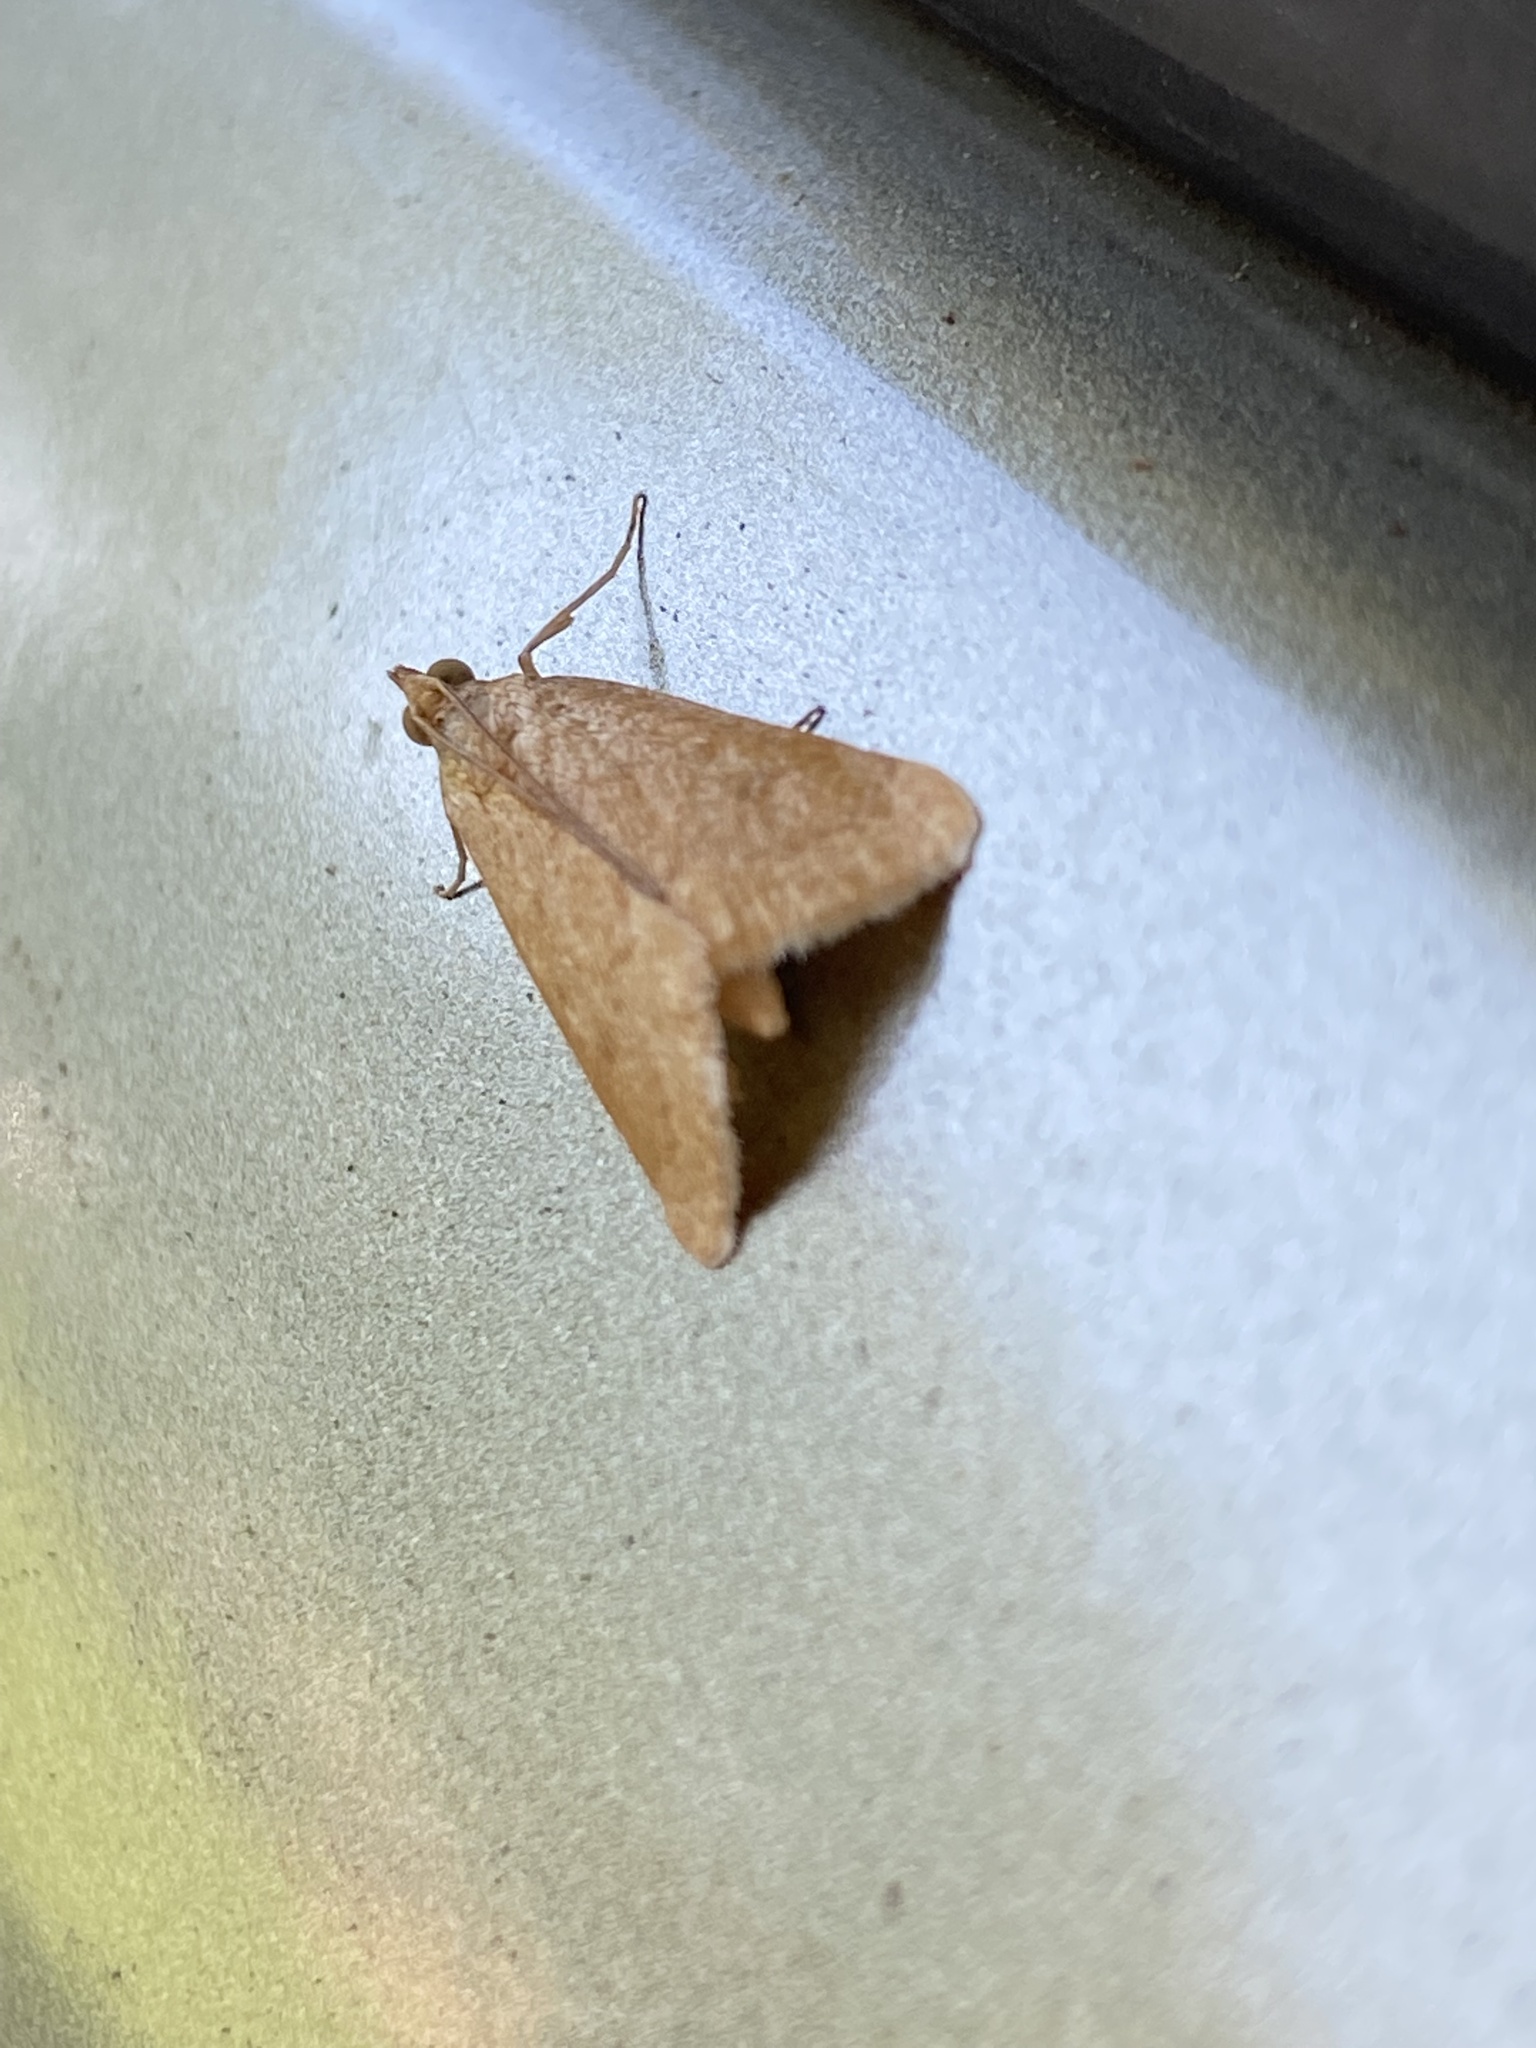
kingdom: Animalia
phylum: Arthropoda
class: Insecta
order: Lepidoptera
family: Crambidae
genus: Achyra
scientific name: Achyra rantalis
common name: Garden webworm
